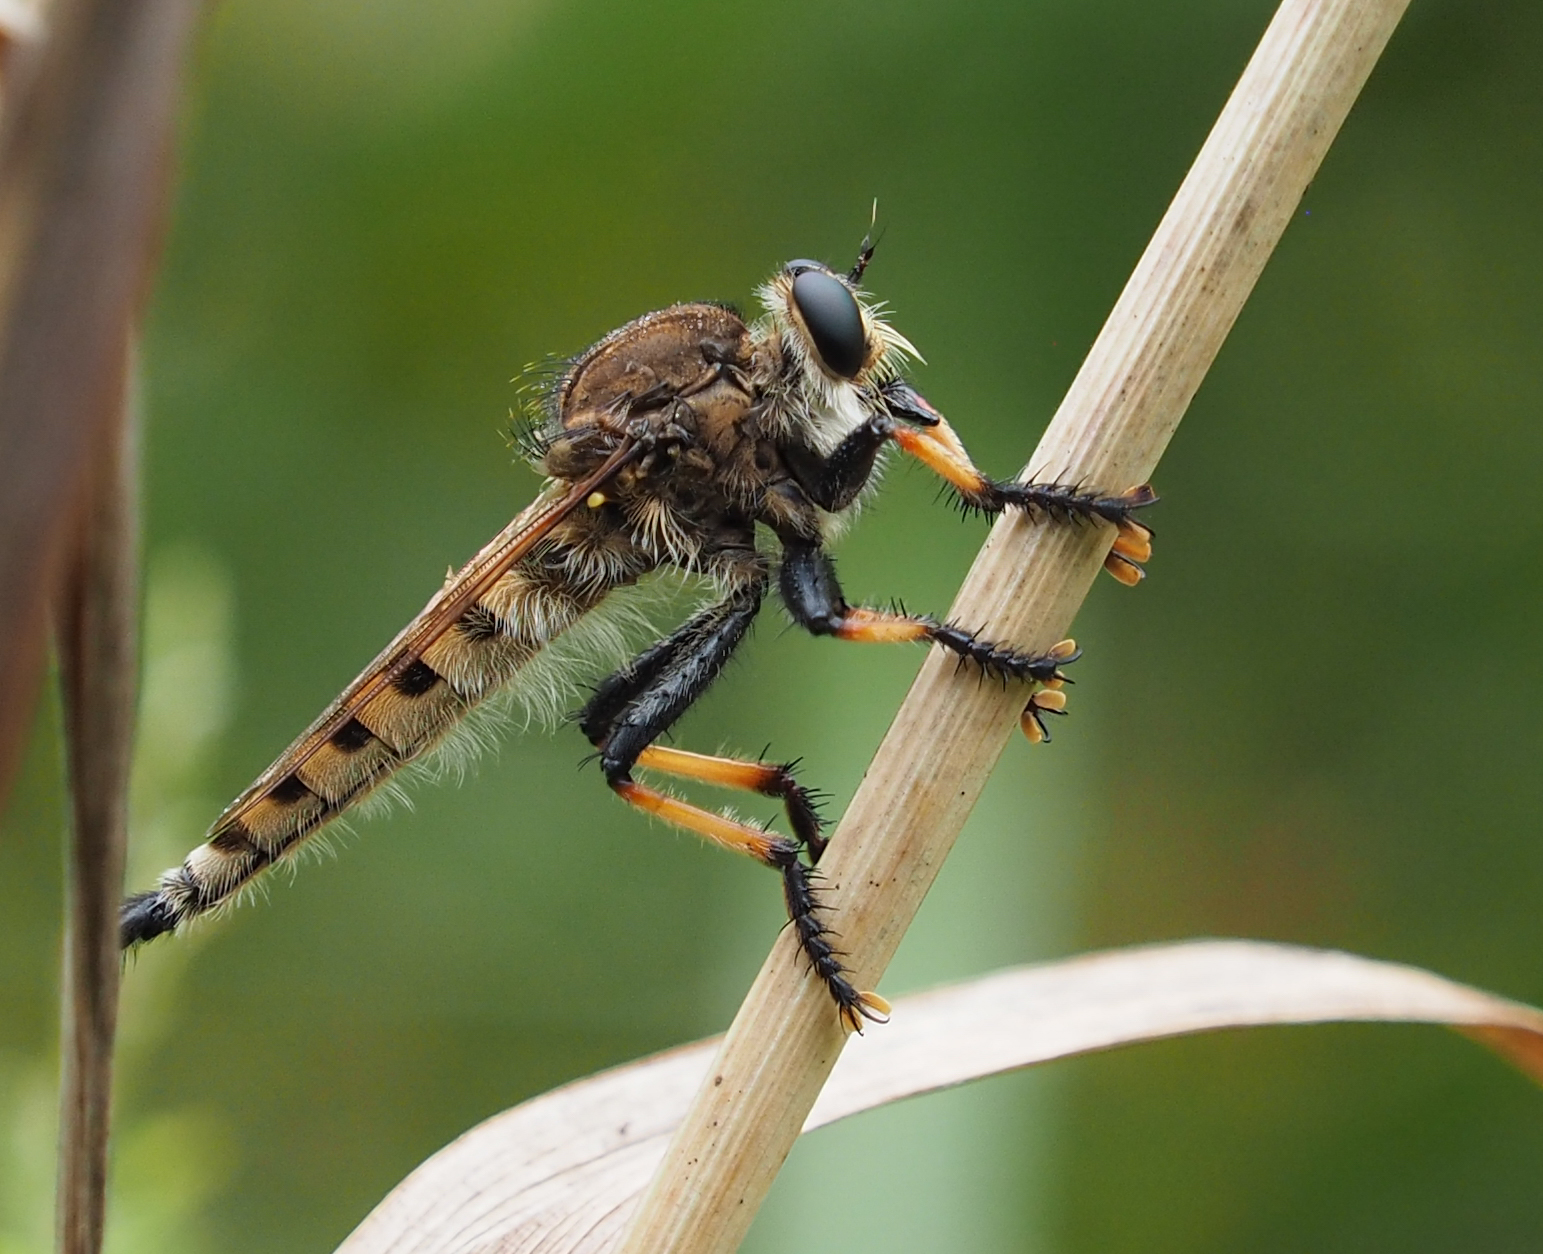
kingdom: Animalia
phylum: Arthropoda
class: Insecta
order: Diptera
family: Asilidae
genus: Promachus
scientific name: Promachus rufipes
